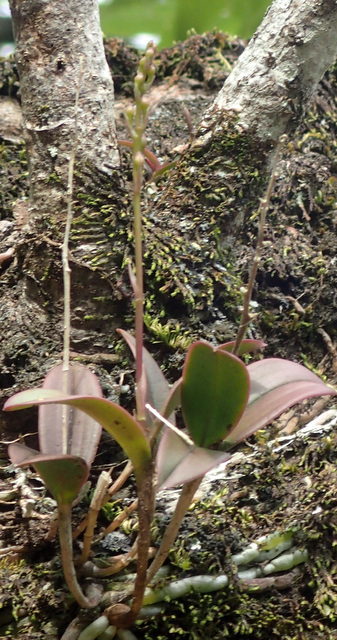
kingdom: Plantae
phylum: Tracheophyta
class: Liliopsida
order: Asparagales
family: Orchidaceae
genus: Epidendrum
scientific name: Epidendrum conopseum
